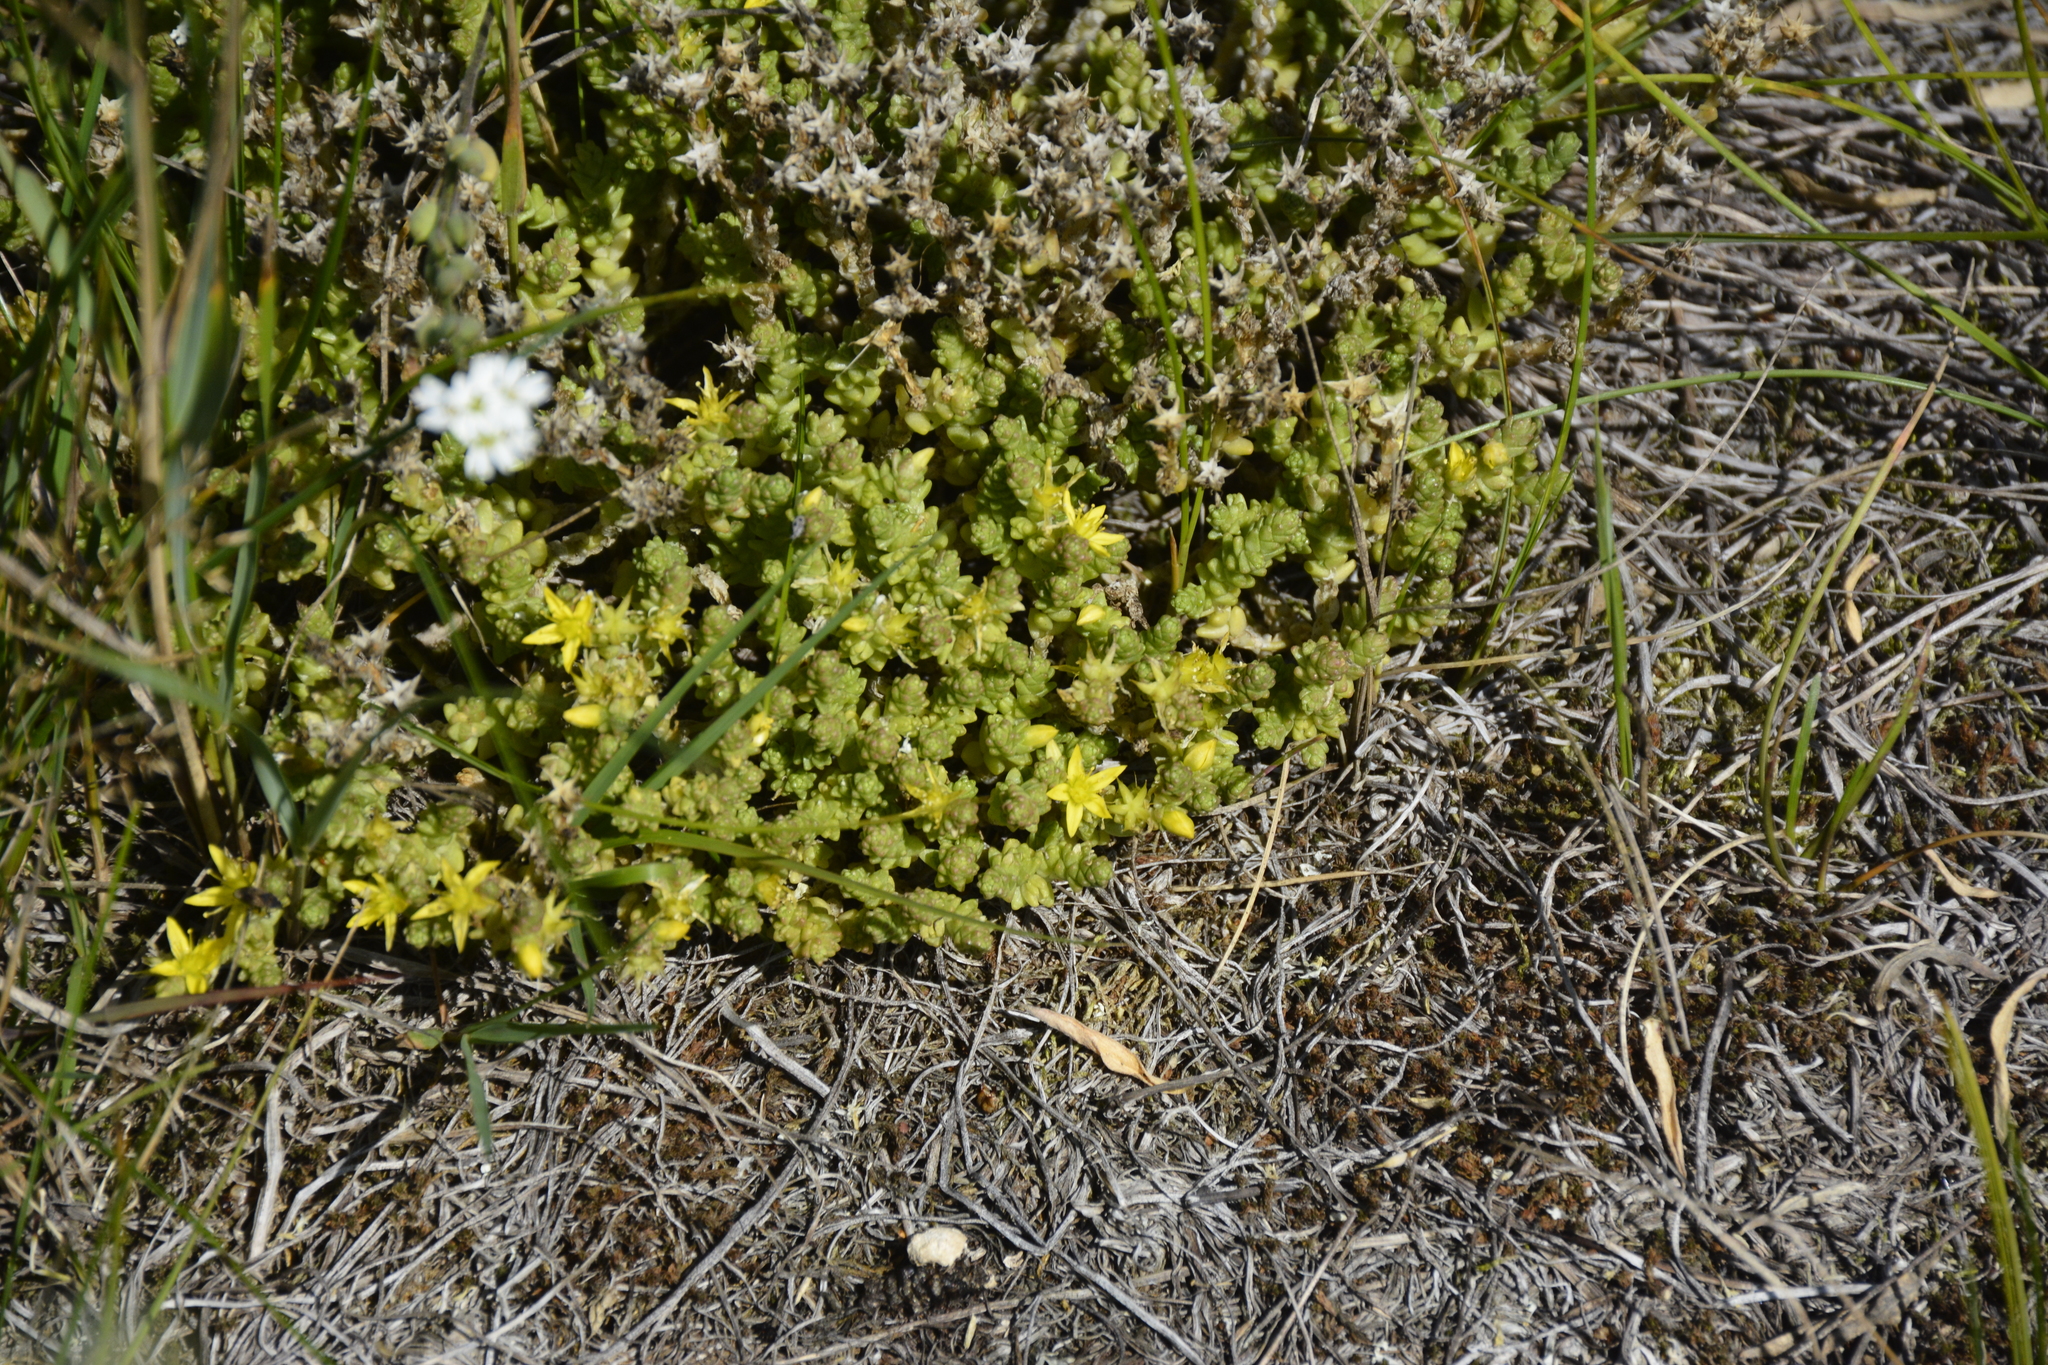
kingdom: Plantae
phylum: Tracheophyta
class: Magnoliopsida
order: Saxifragales
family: Crassulaceae
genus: Sedum
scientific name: Sedum acre
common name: Biting stonecrop
